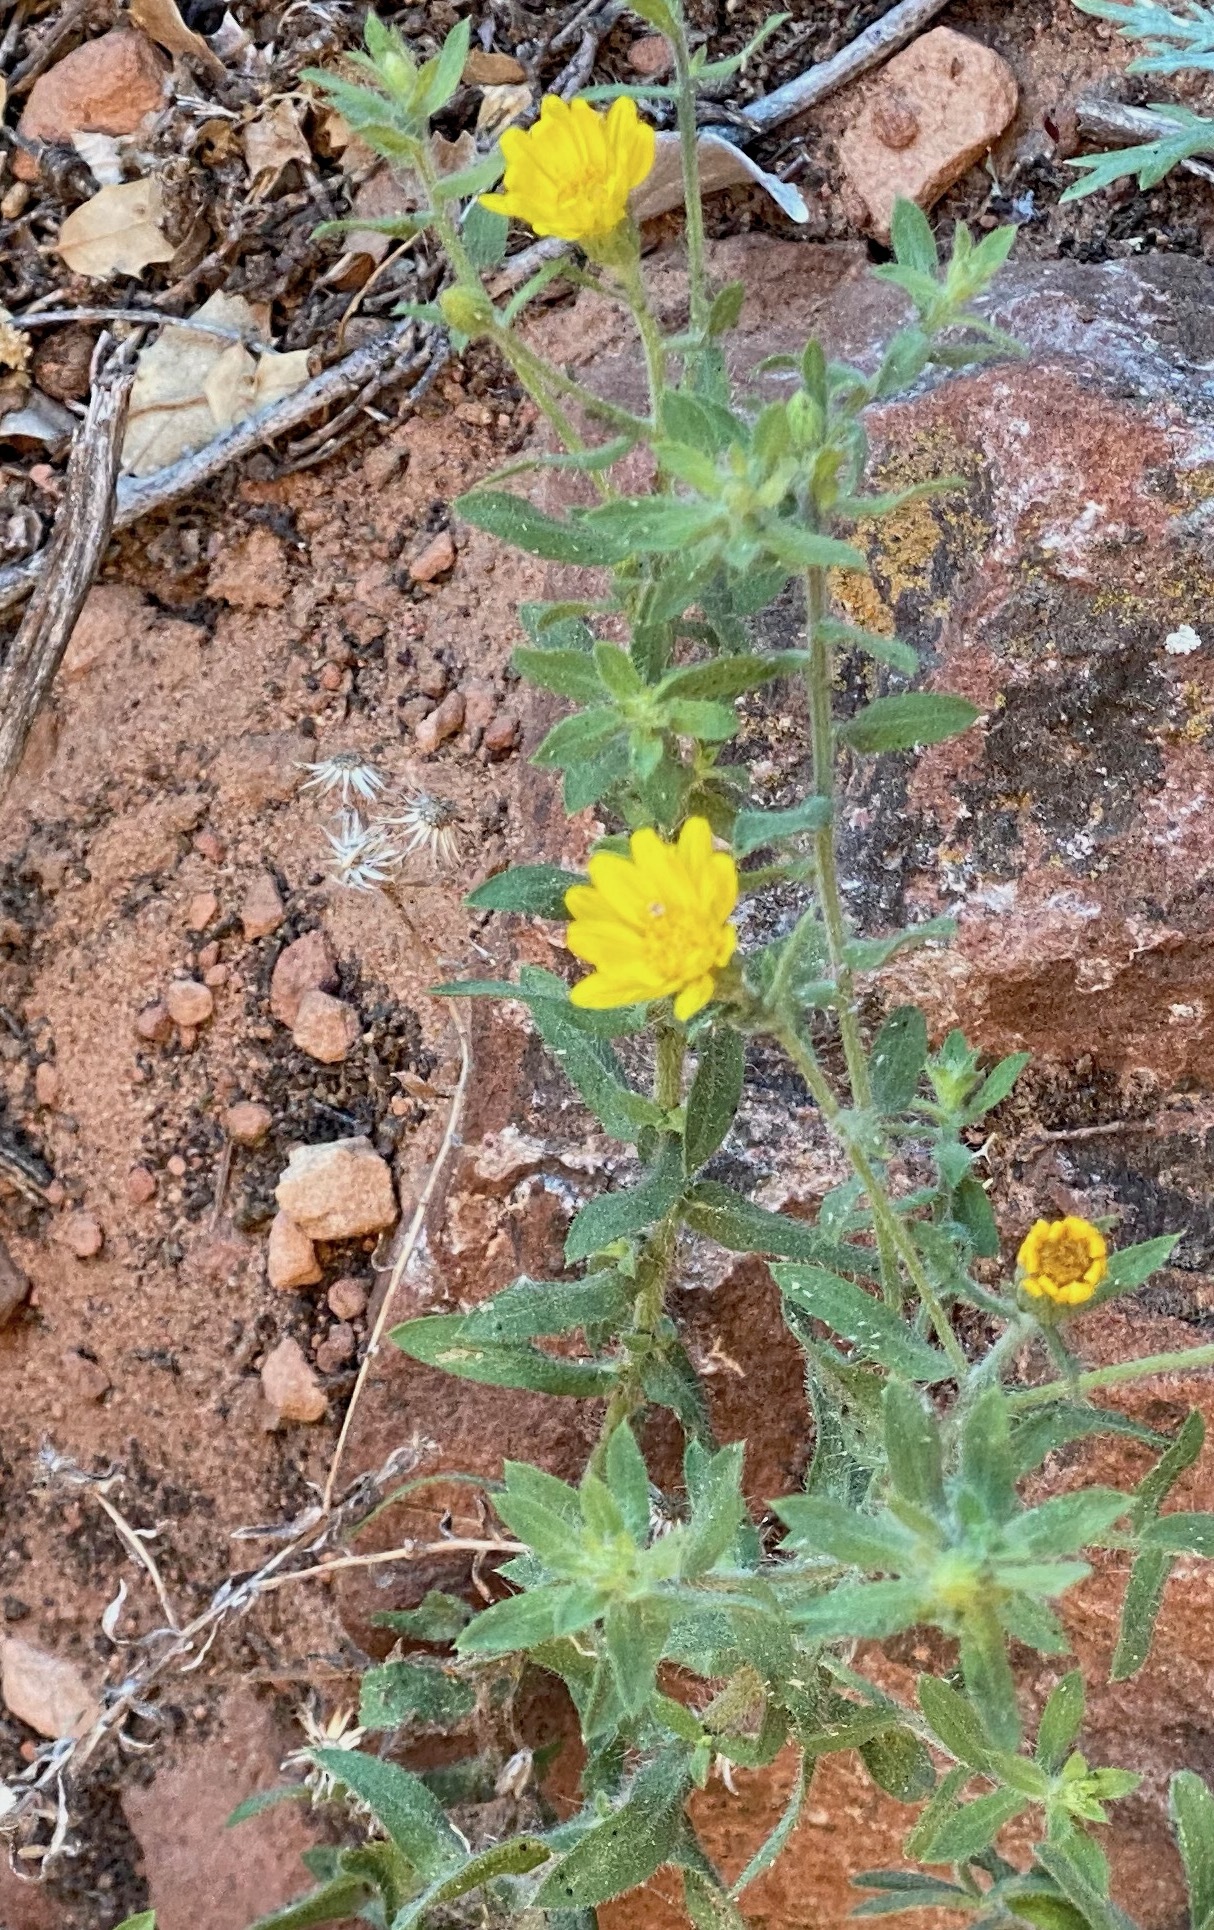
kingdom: Plantae
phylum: Tracheophyta
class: Magnoliopsida
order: Asterales
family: Asteraceae
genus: Heterotheca
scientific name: Heterotheca polothrix
